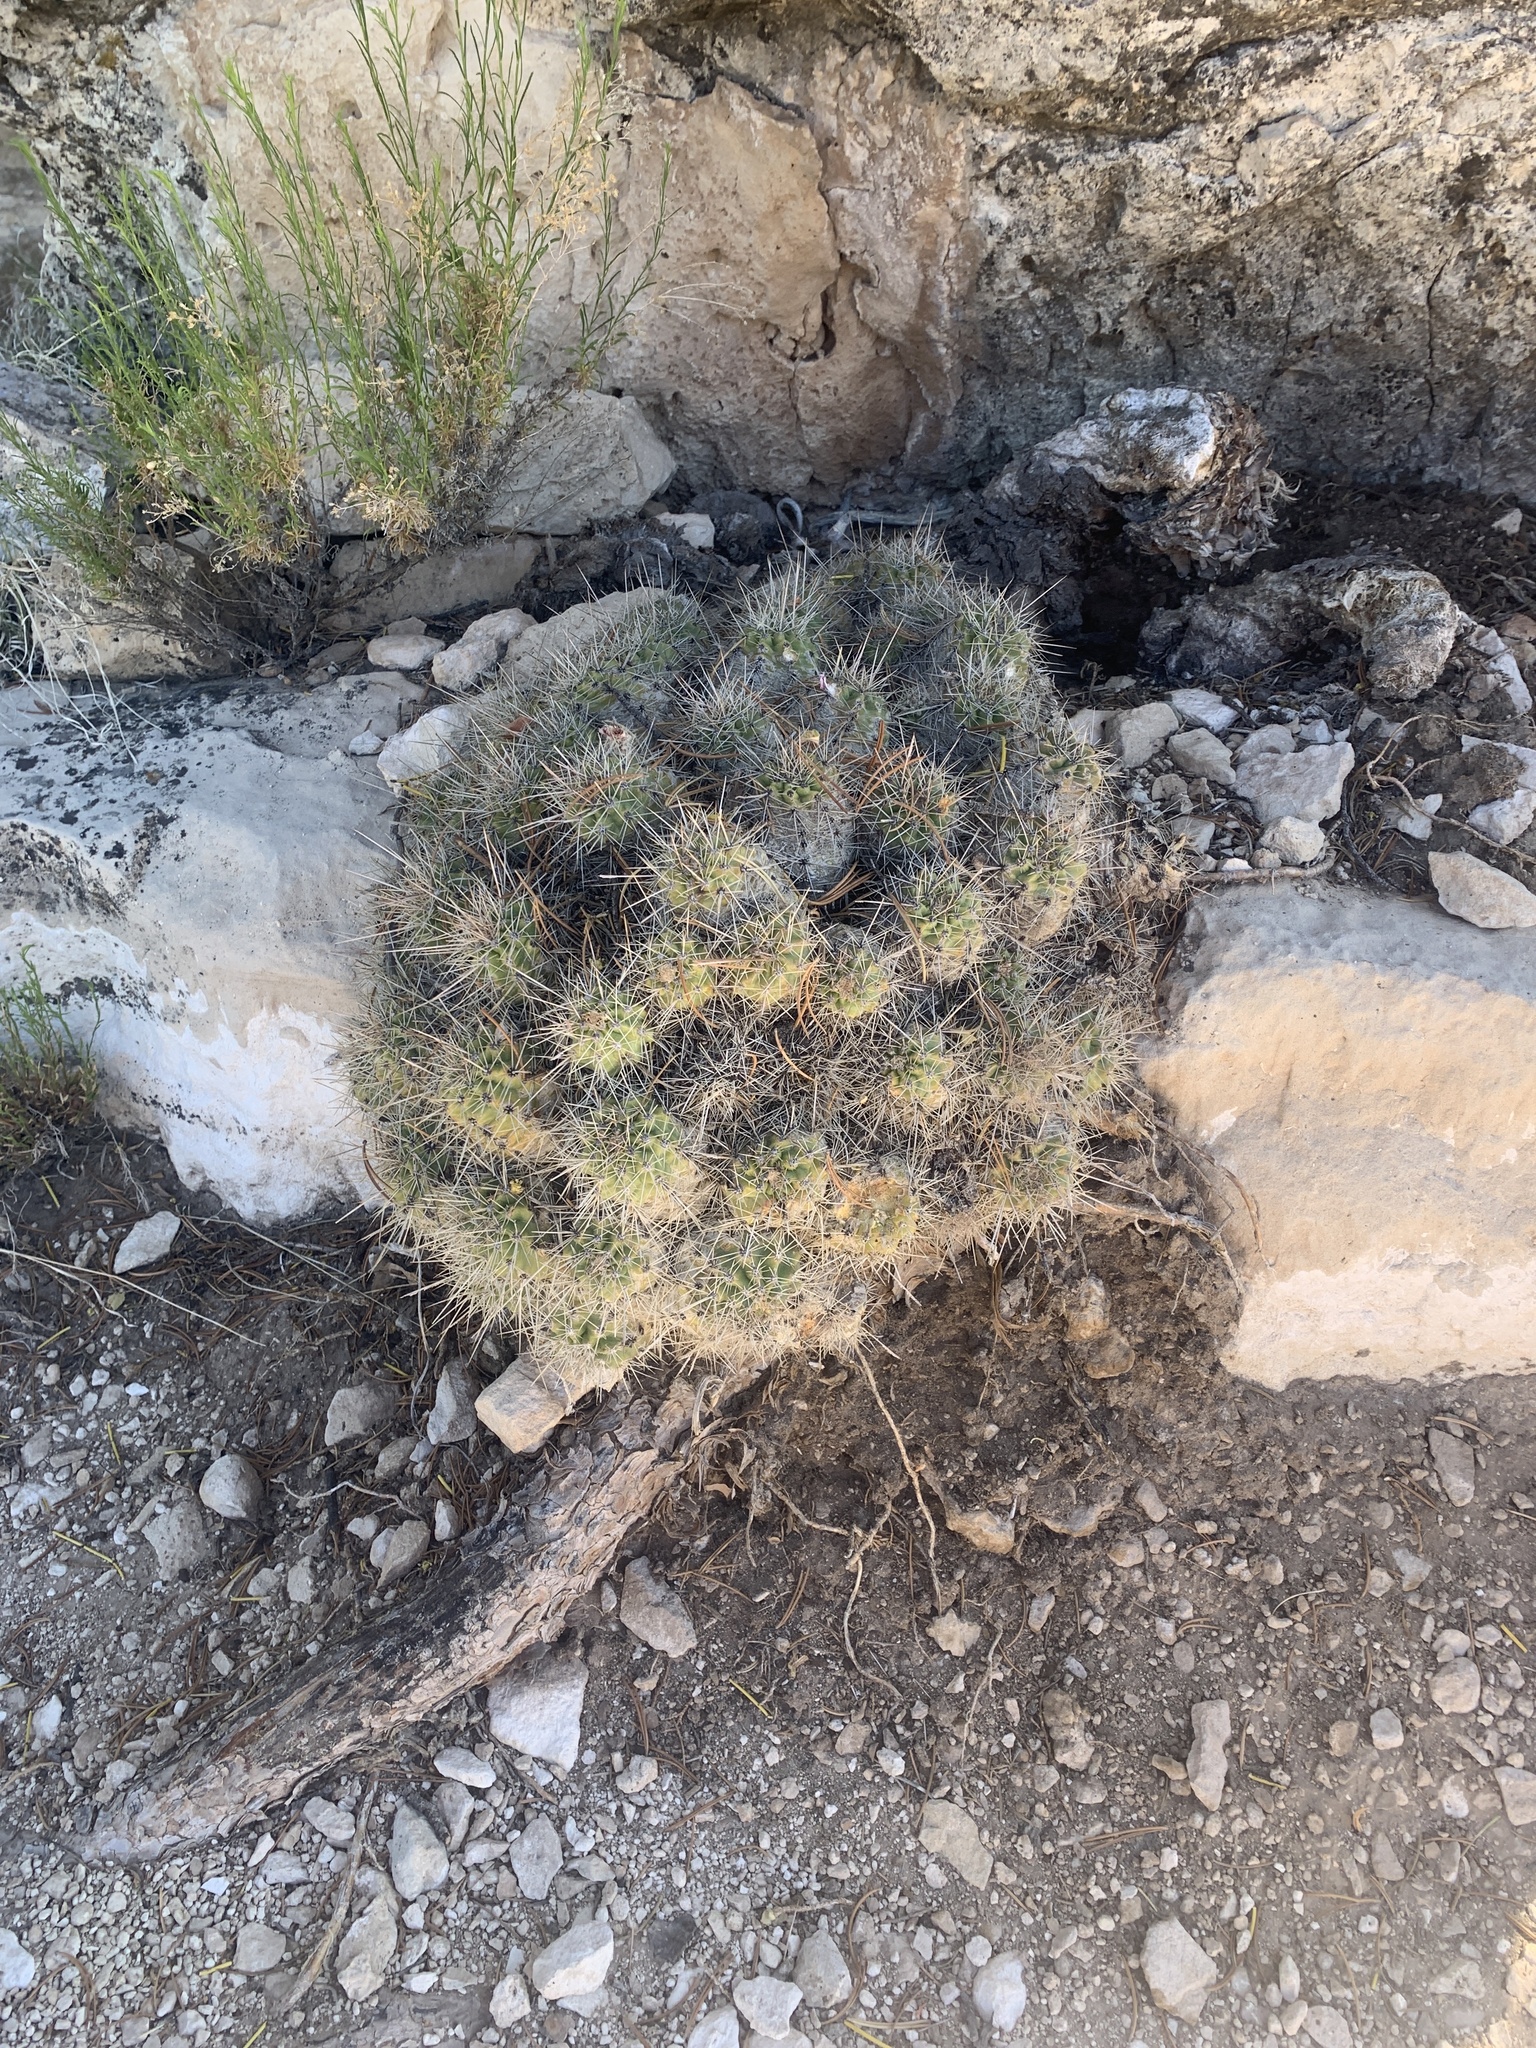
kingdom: Plantae
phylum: Tracheophyta
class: Magnoliopsida
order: Caryophyllales
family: Cactaceae
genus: Echinocereus
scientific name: Echinocereus bakeri
